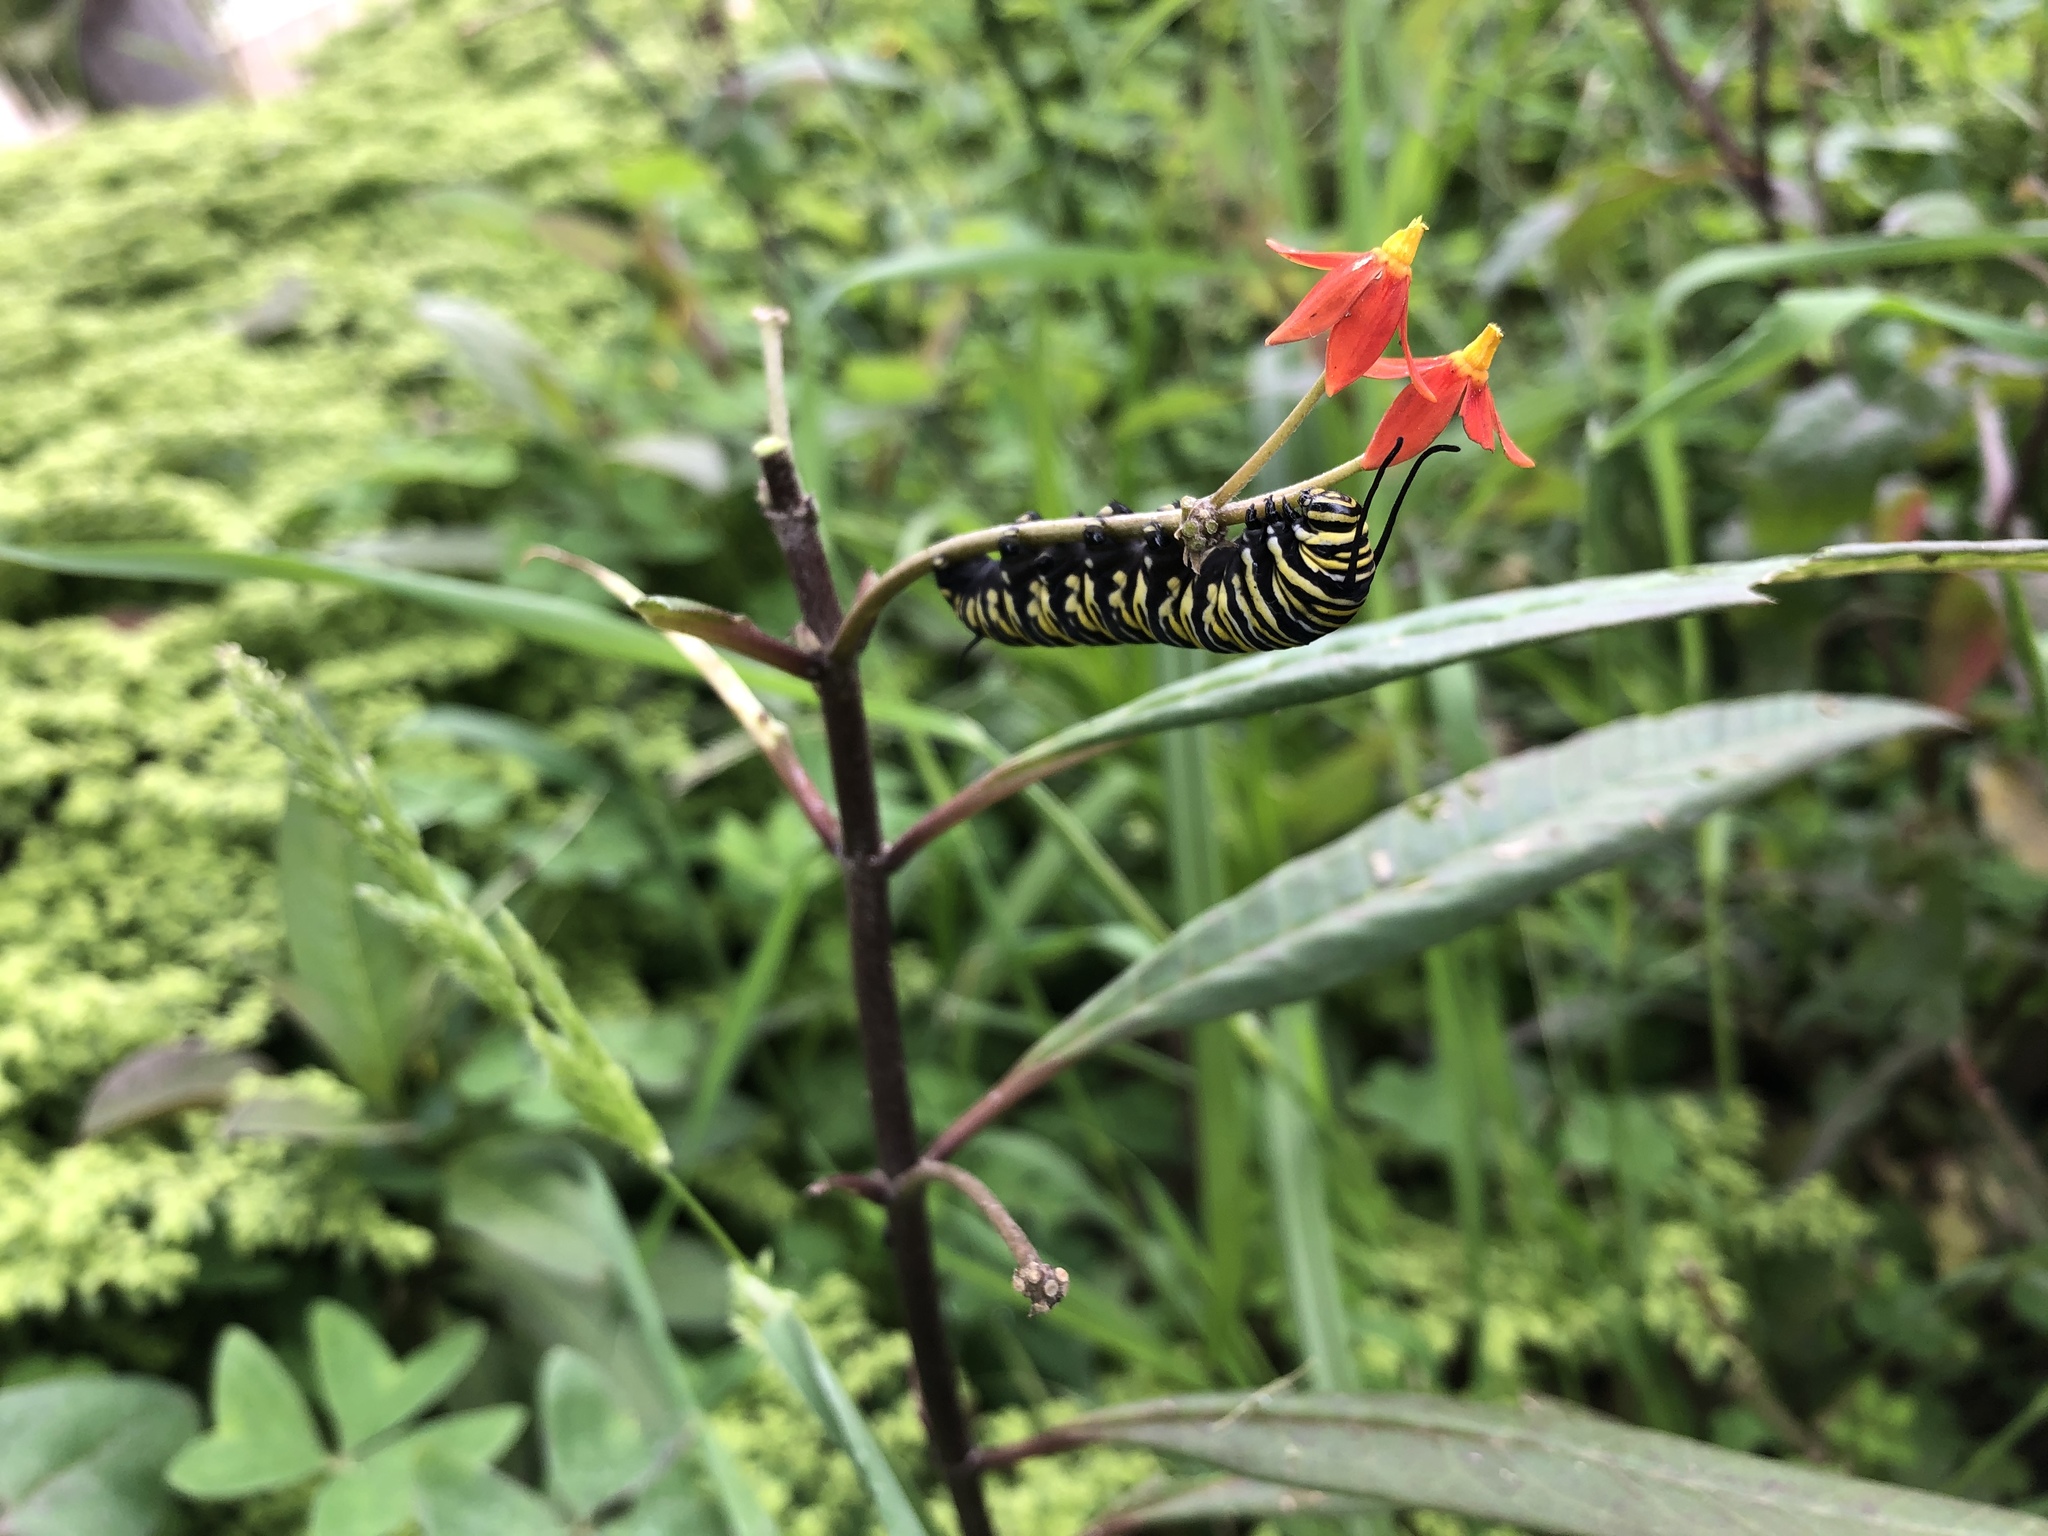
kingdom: Animalia
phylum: Arthropoda
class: Insecta
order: Lepidoptera
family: Nymphalidae
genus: Danaus
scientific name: Danaus plexippus
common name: Monarch
